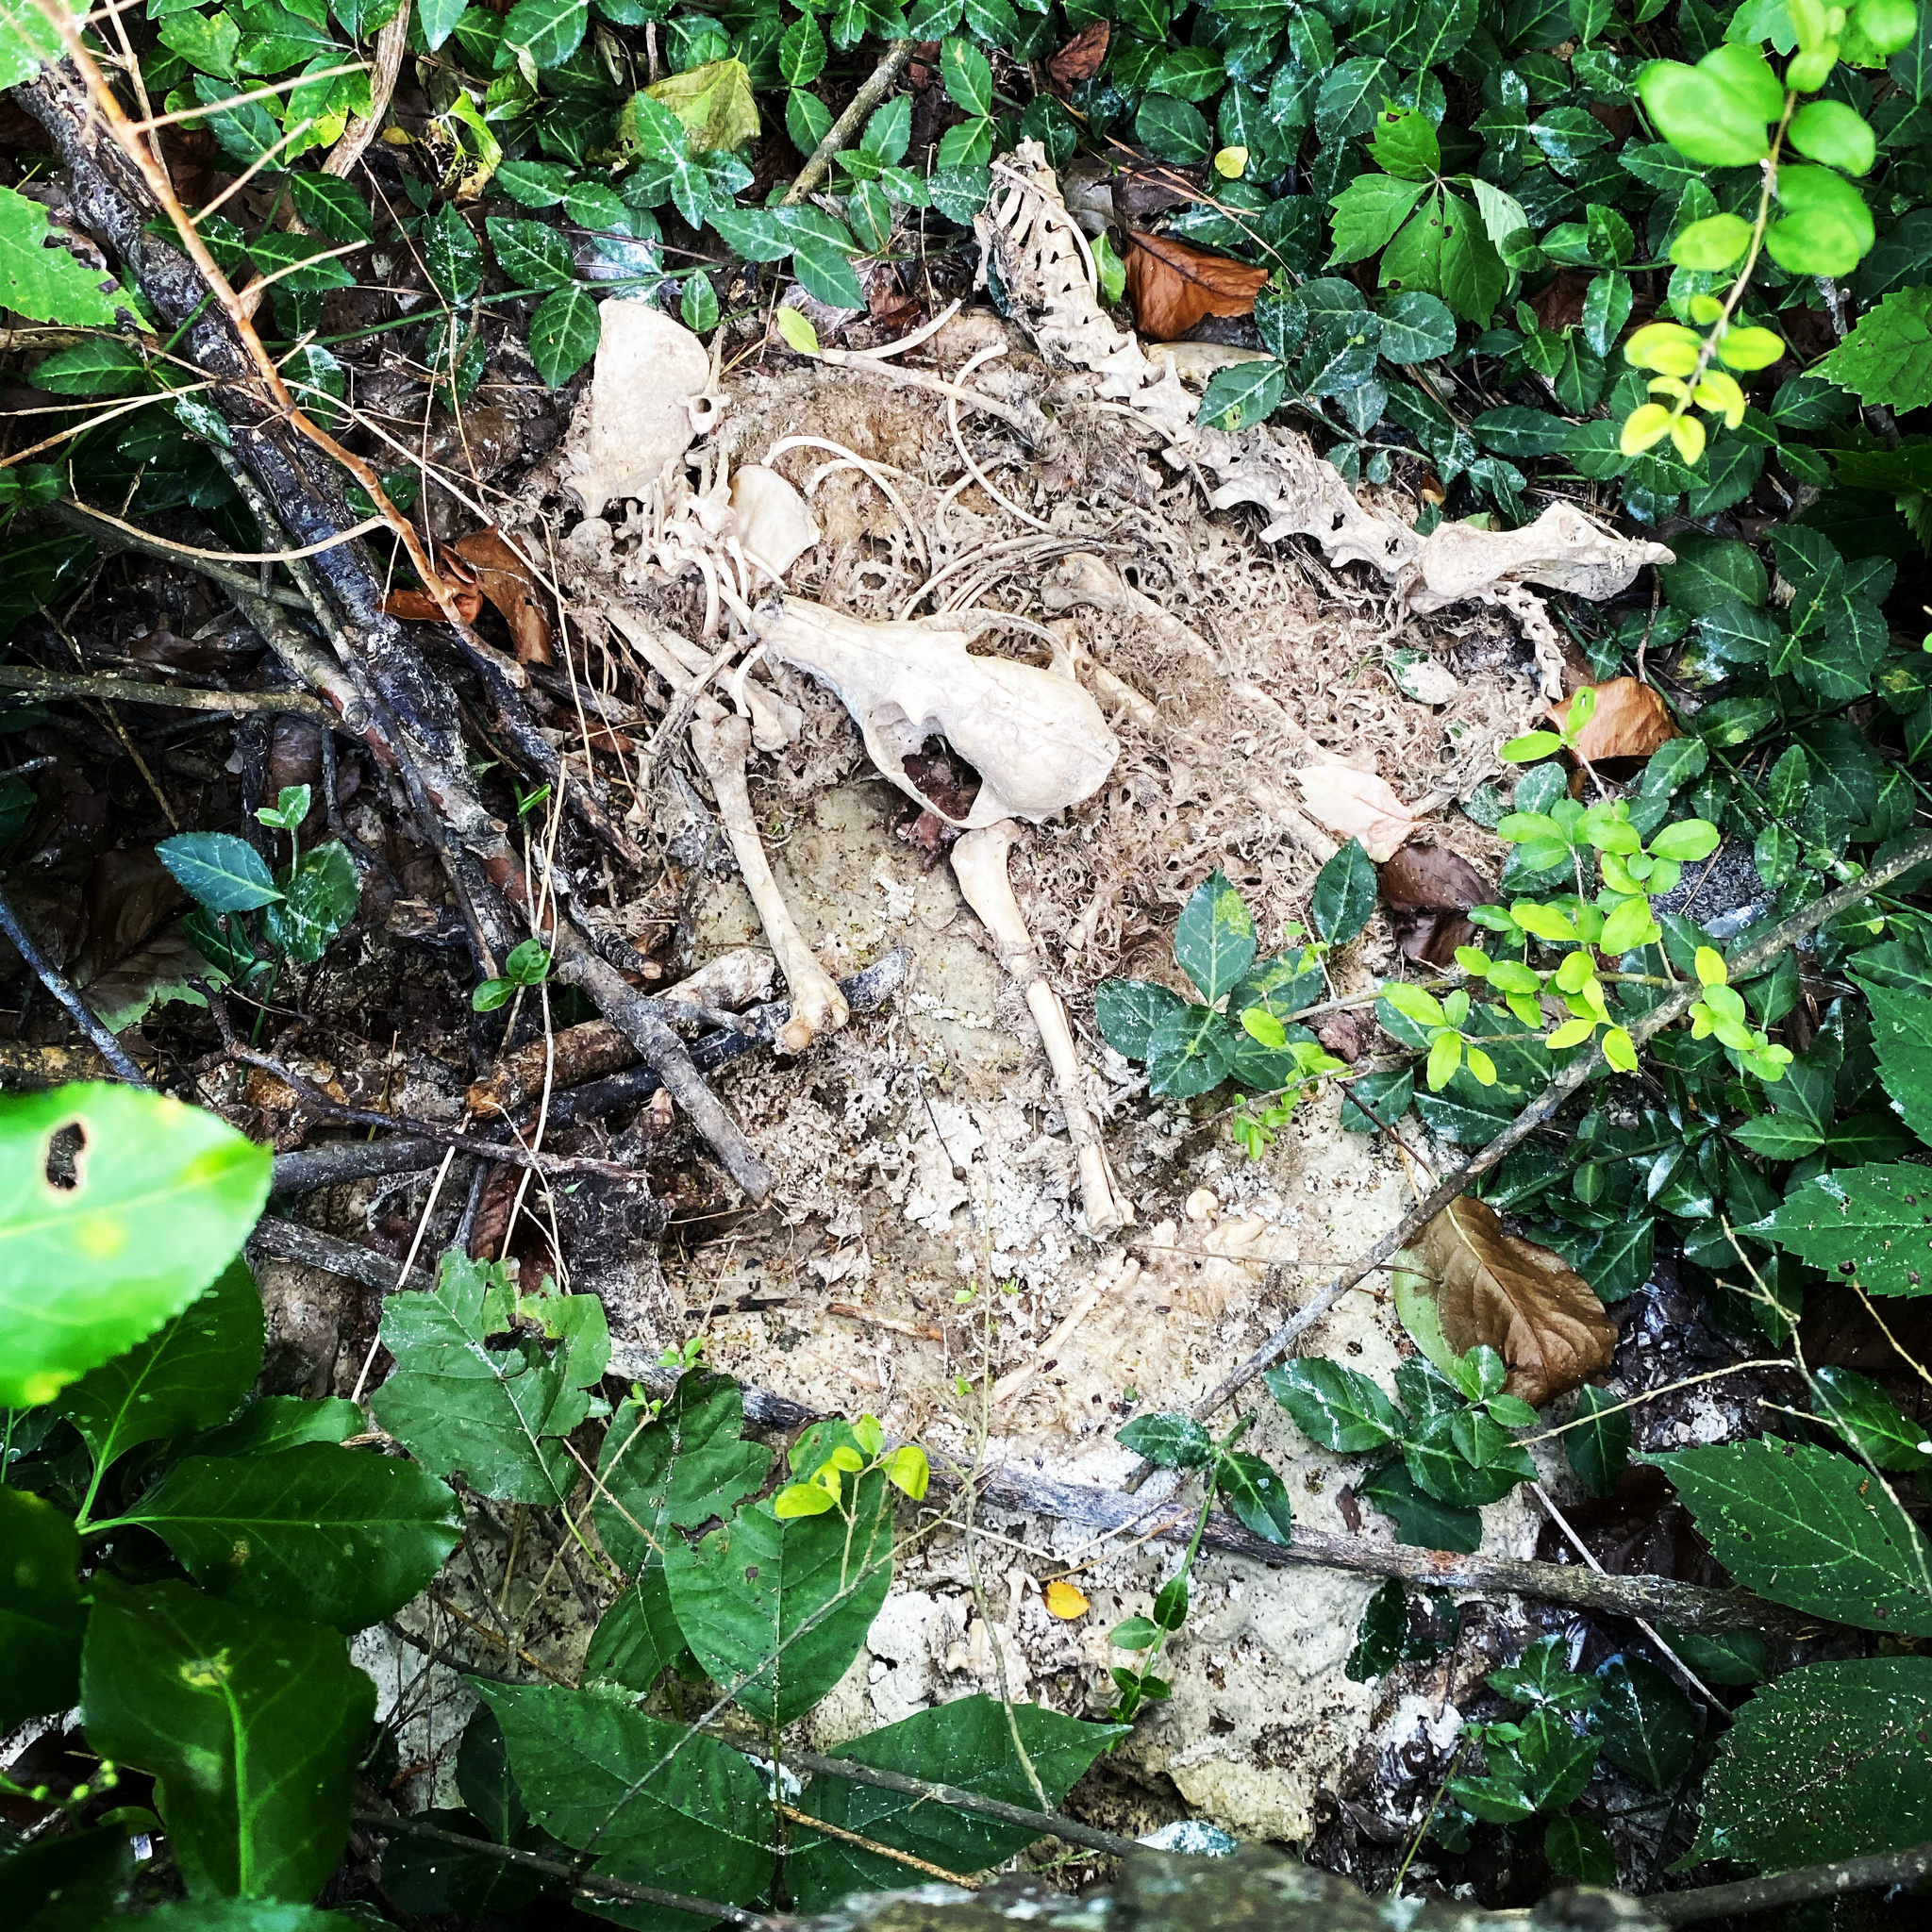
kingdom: Animalia
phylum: Chordata
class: Mammalia
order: Carnivora
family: Canidae
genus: Vulpes
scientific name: Vulpes vulpes
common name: Red fox
